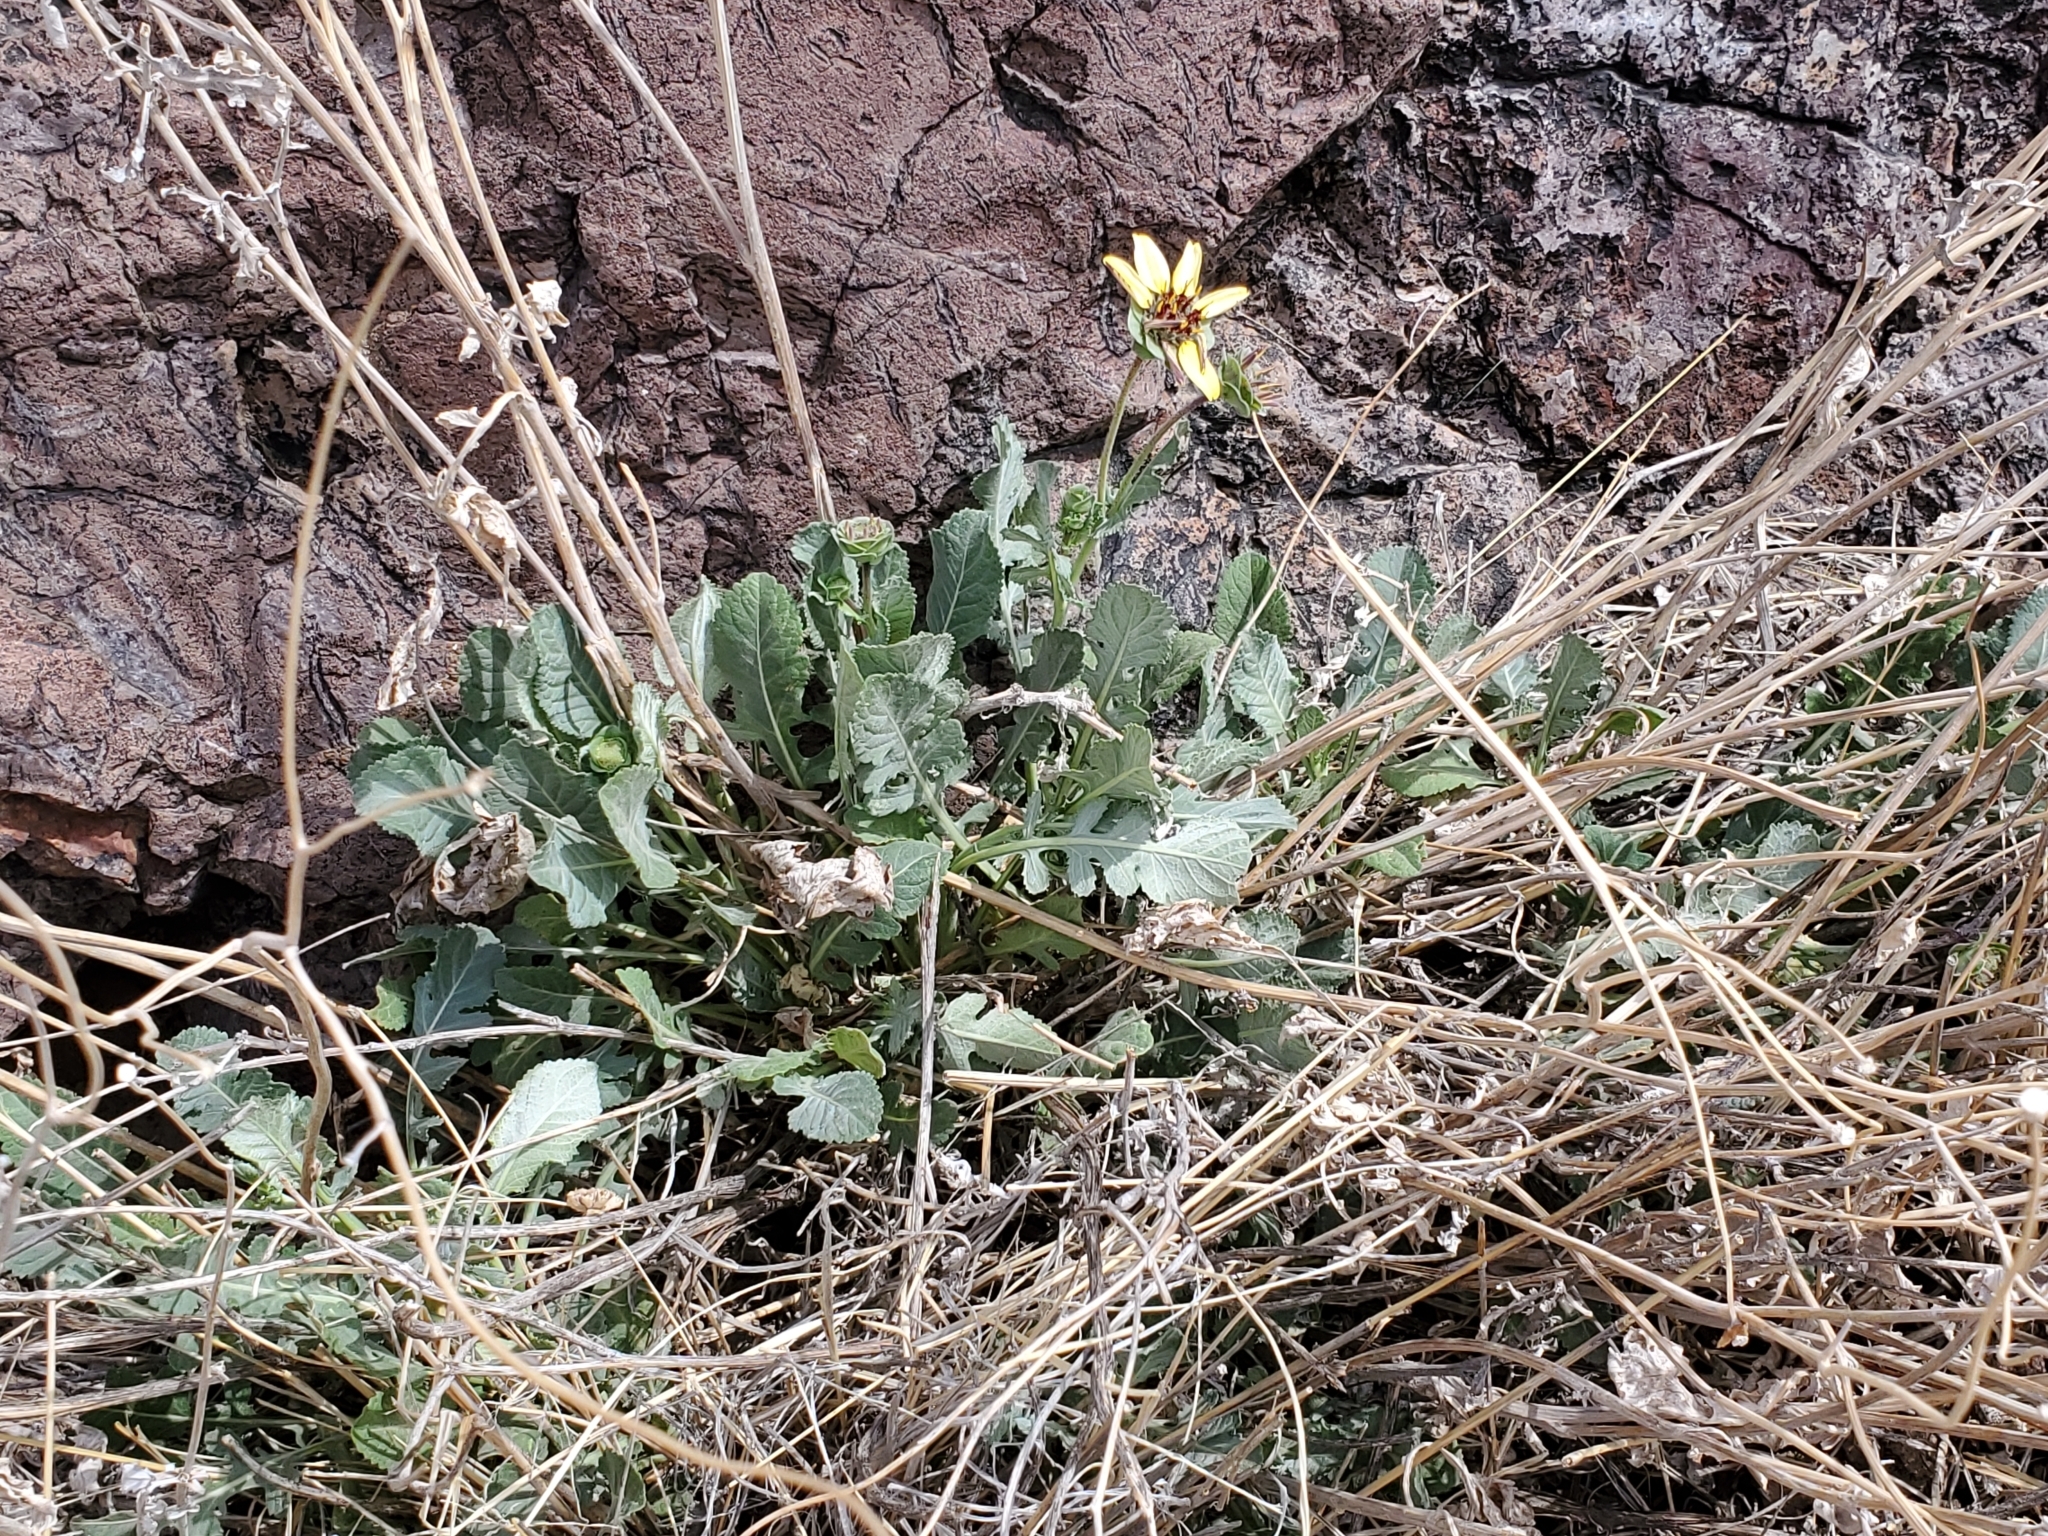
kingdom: Plantae
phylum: Tracheophyta
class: Magnoliopsida
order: Asterales
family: Asteraceae
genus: Berlandiera
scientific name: Berlandiera lyrata
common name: Chocolate-flower
